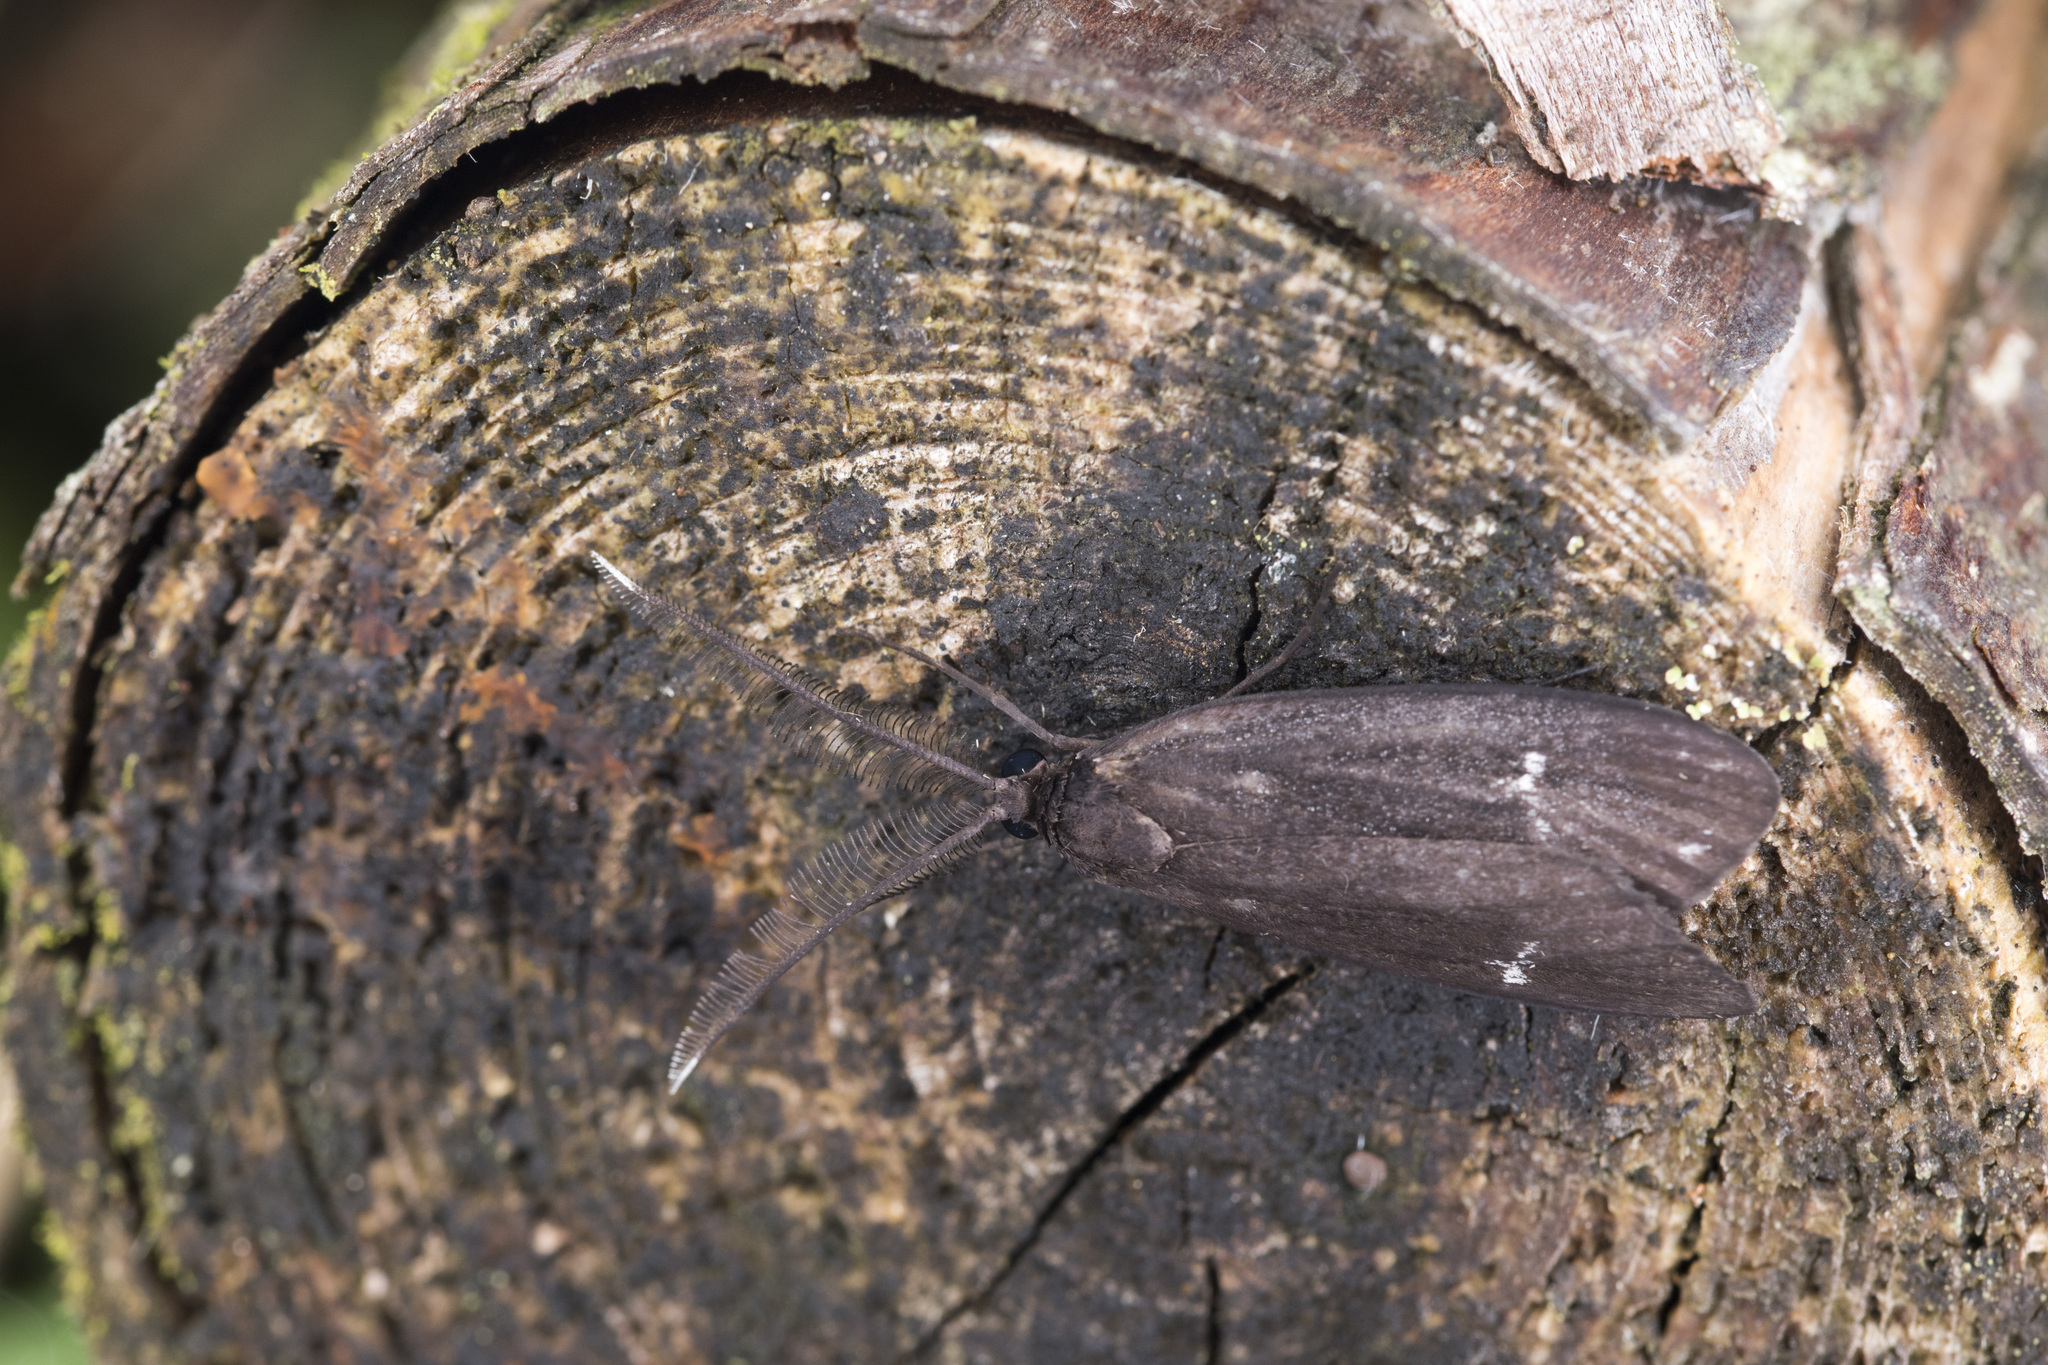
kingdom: Animalia
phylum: Arthropoda
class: Insecta
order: Lepidoptera
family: Zygaenidae
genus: Morionia
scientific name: Morionia sciara
